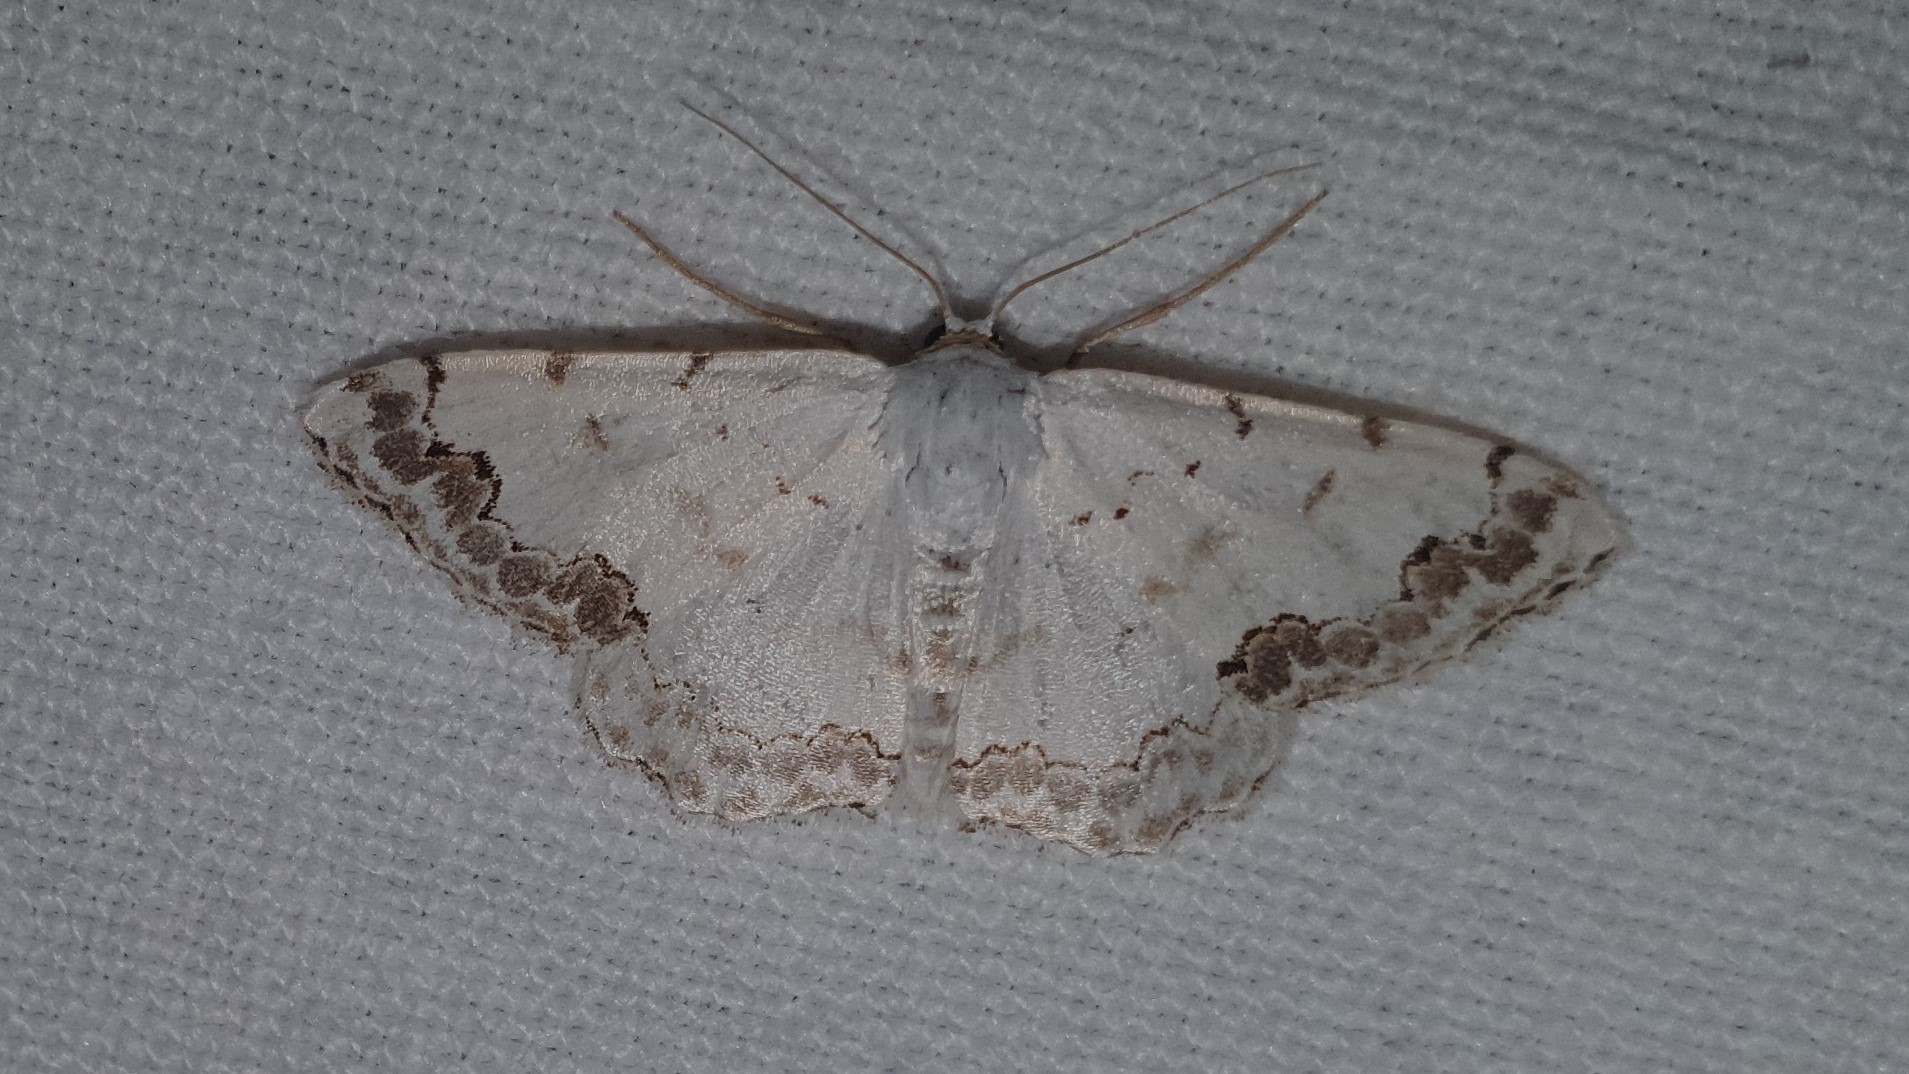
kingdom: Animalia
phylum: Arthropoda
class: Insecta
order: Lepidoptera
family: Geometridae
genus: Scopula
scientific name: Scopula decorata
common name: Middle lace border
